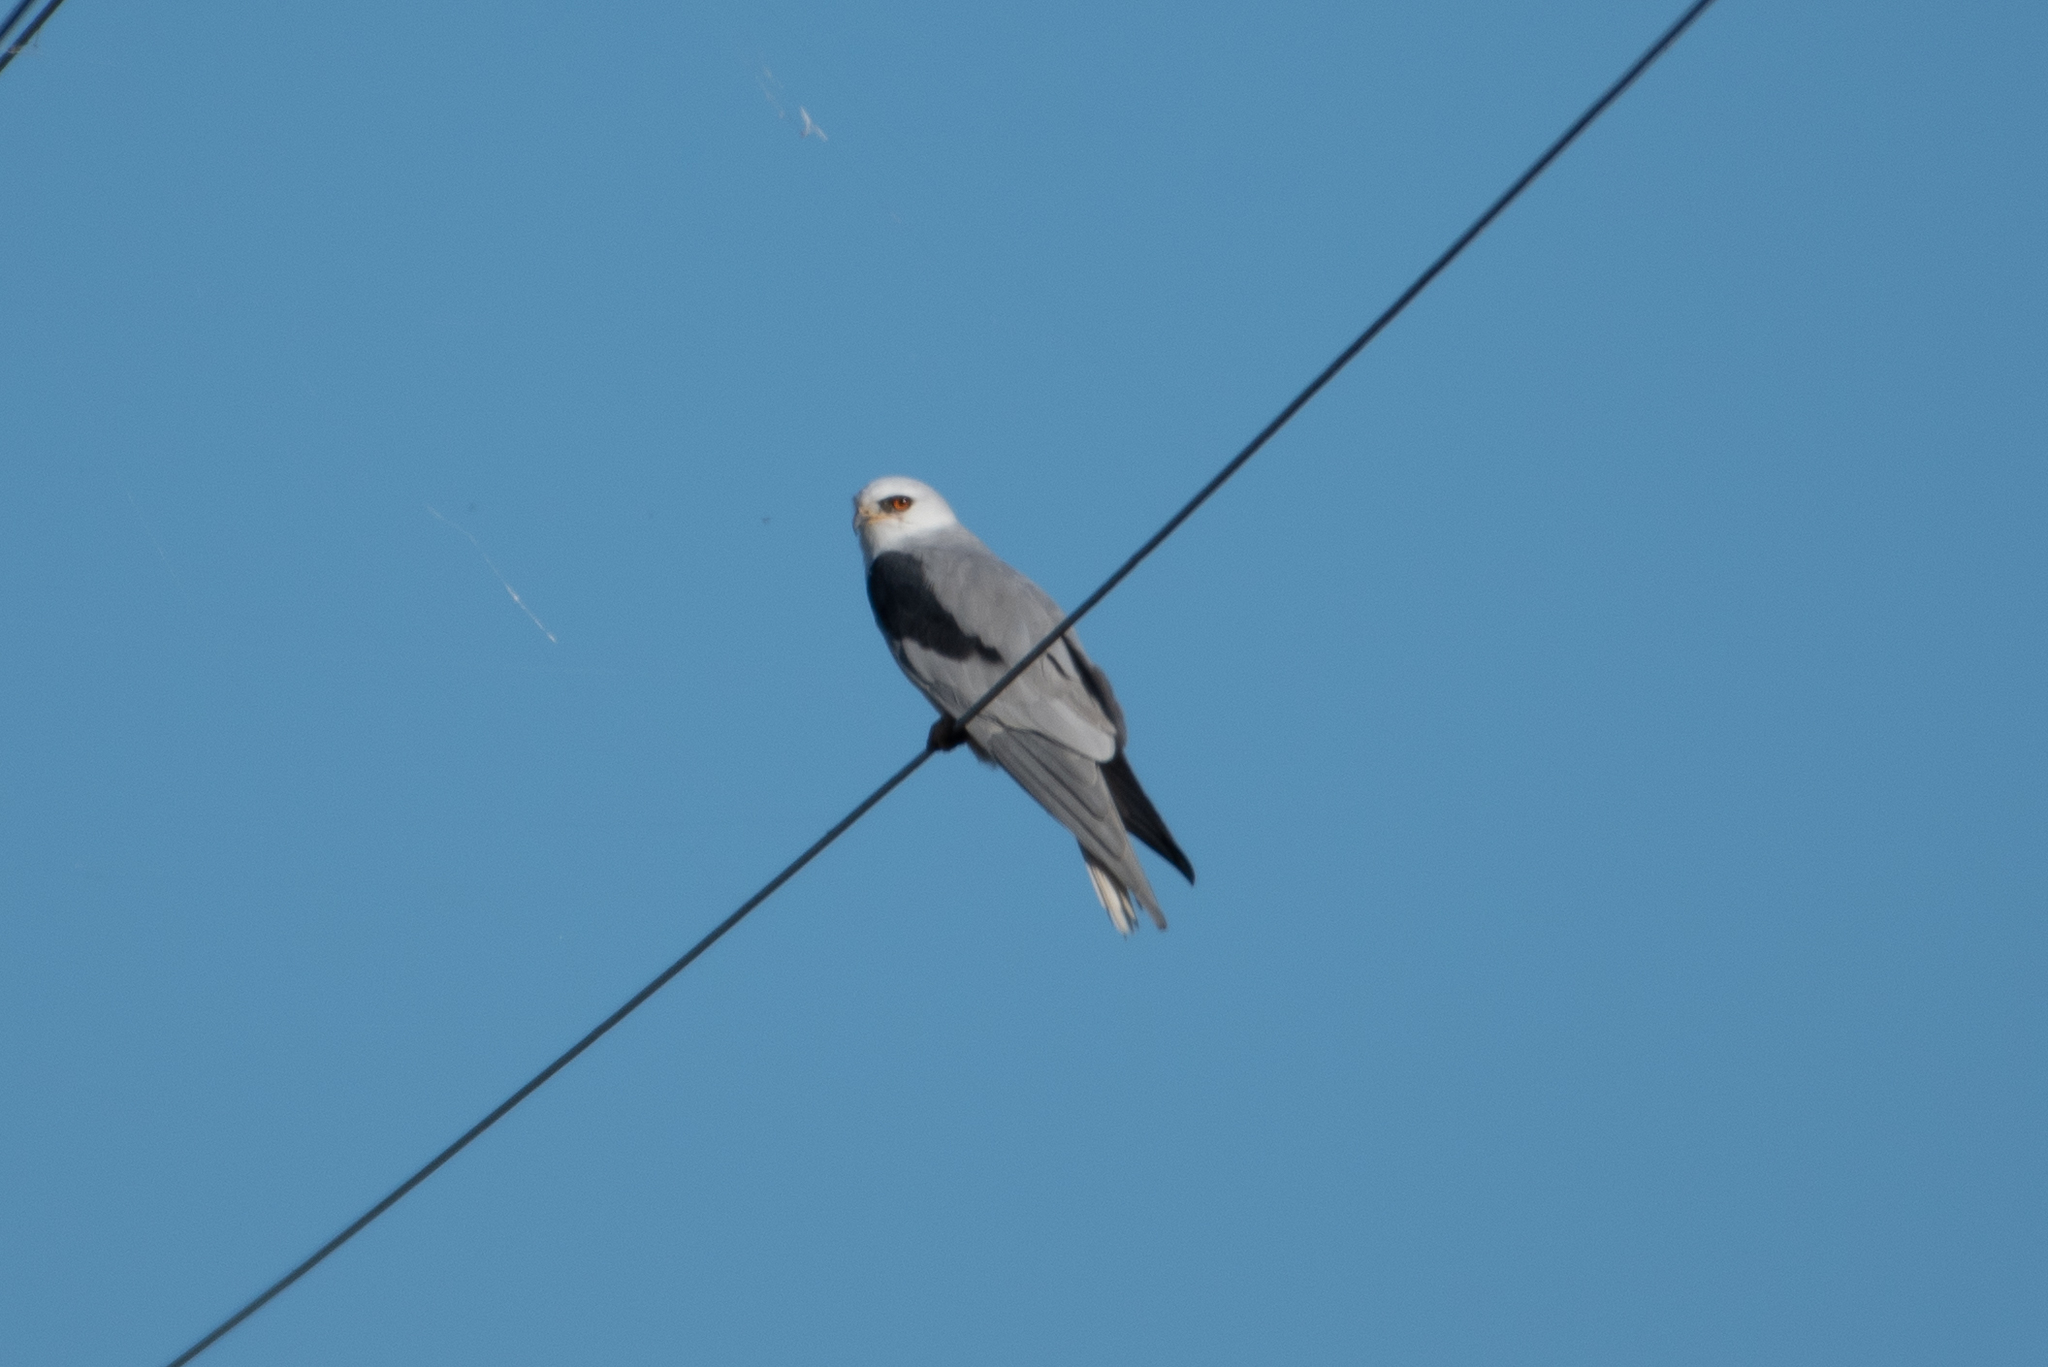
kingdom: Animalia
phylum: Chordata
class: Aves
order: Accipitriformes
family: Accipitridae
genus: Elanus
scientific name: Elanus leucurus
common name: White-tailed kite
